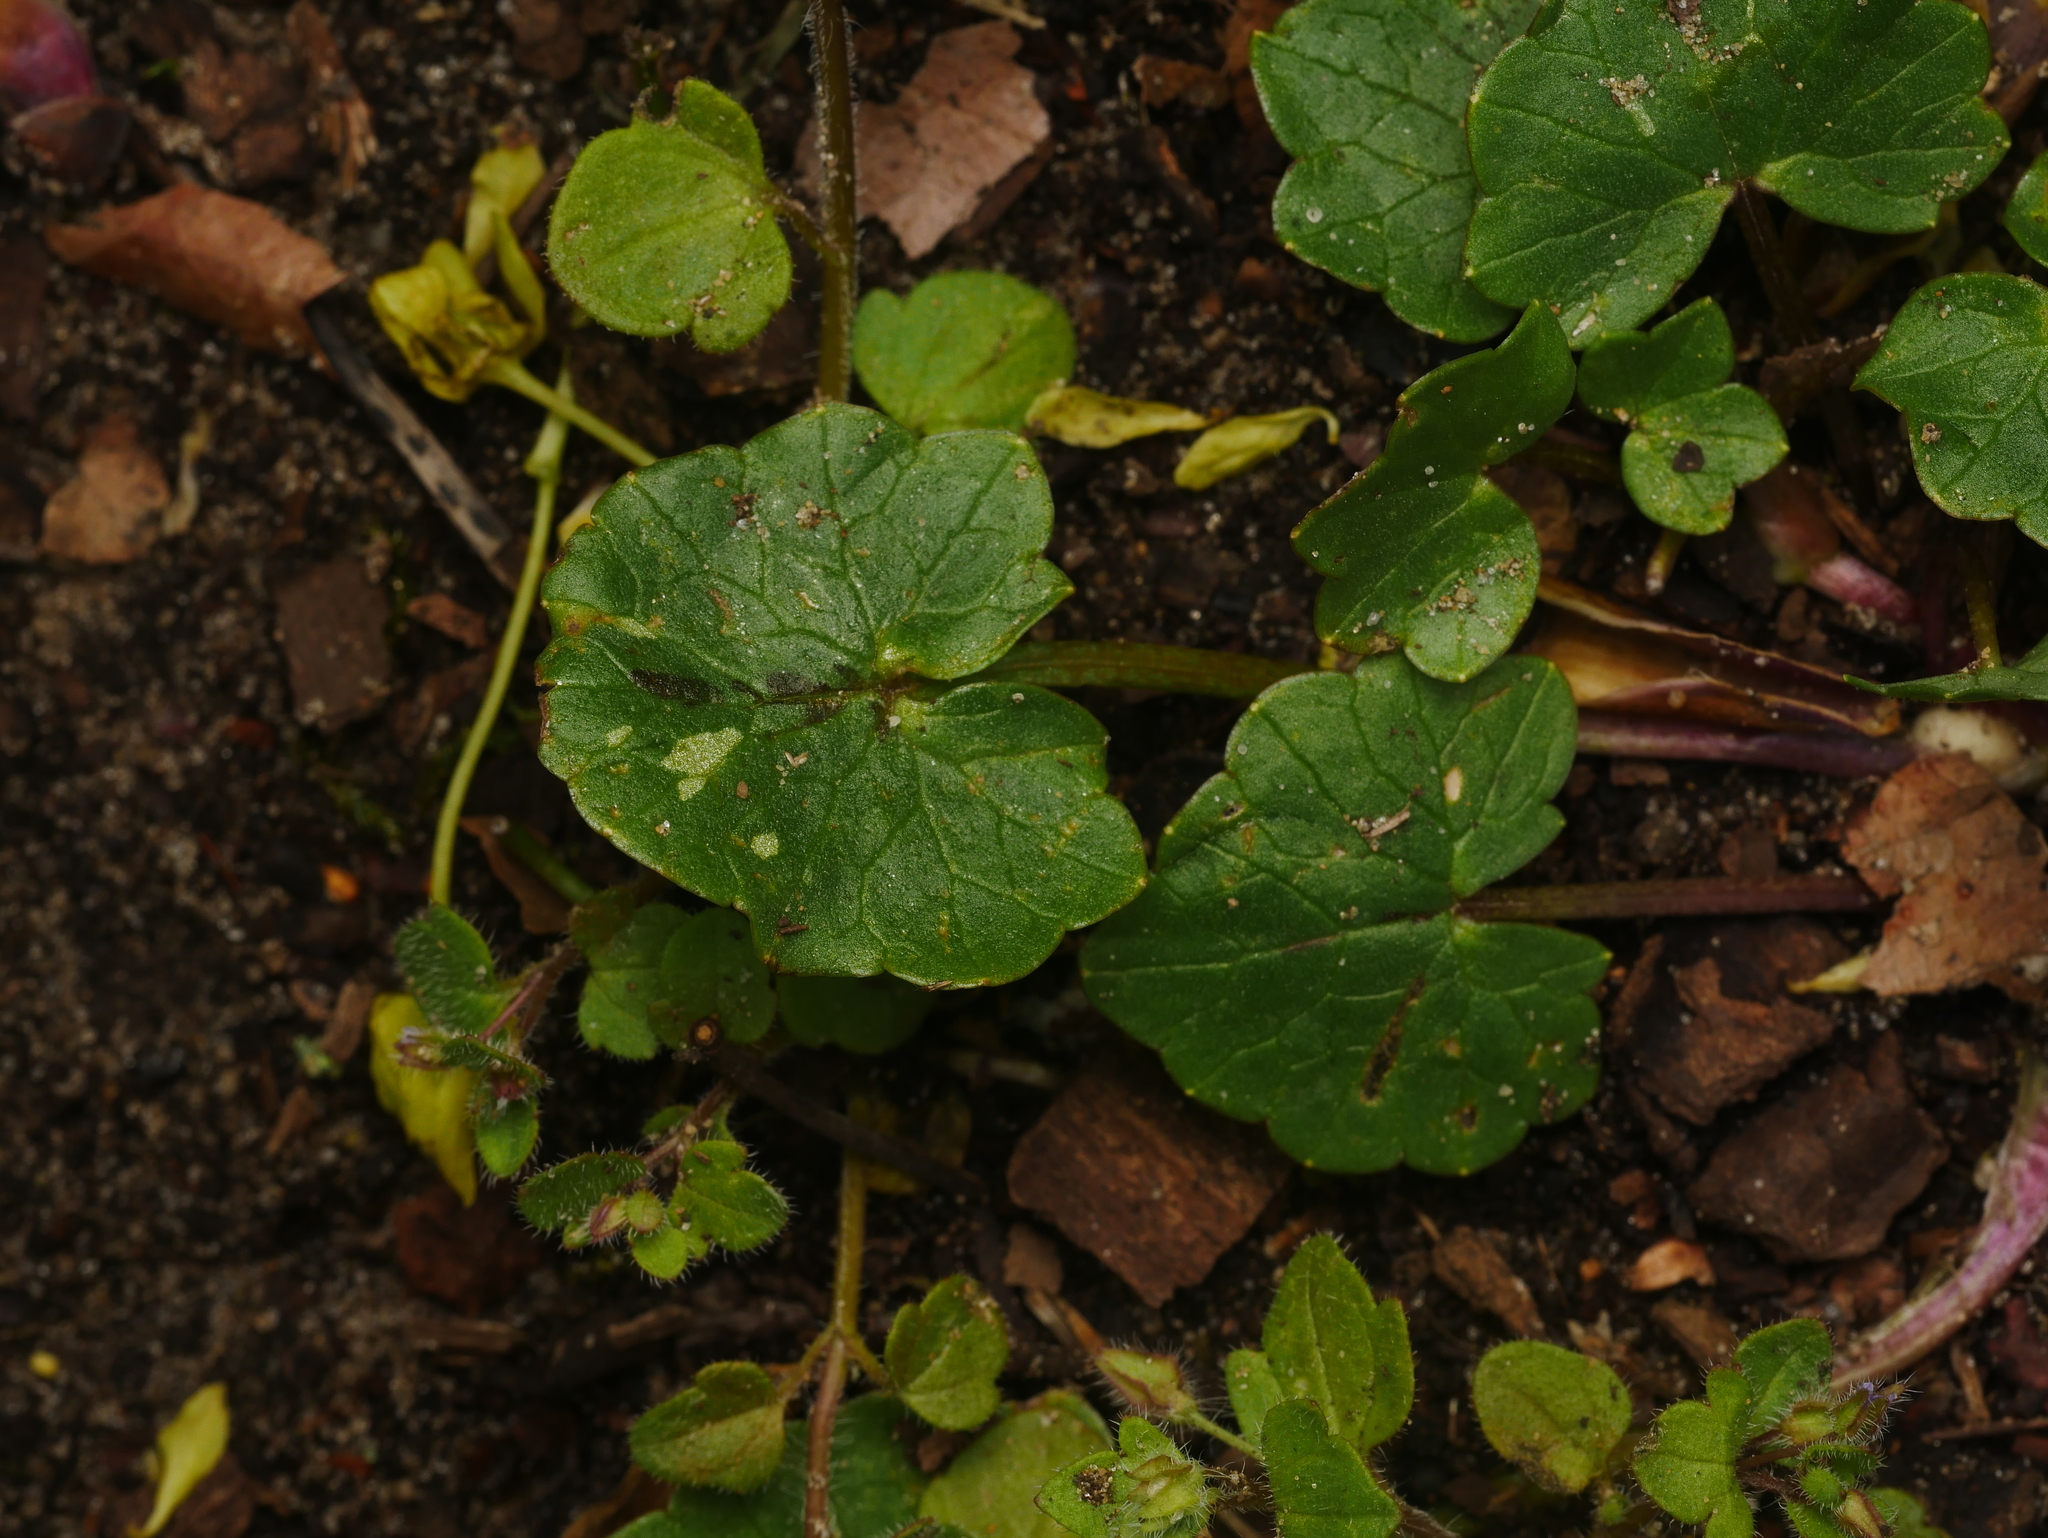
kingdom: Plantae
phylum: Tracheophyta
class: Magnoliopsida
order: Ranunculales
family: Ranunculaceae
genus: Ficaria
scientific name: Ficaria verna
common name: Lesser celandine
